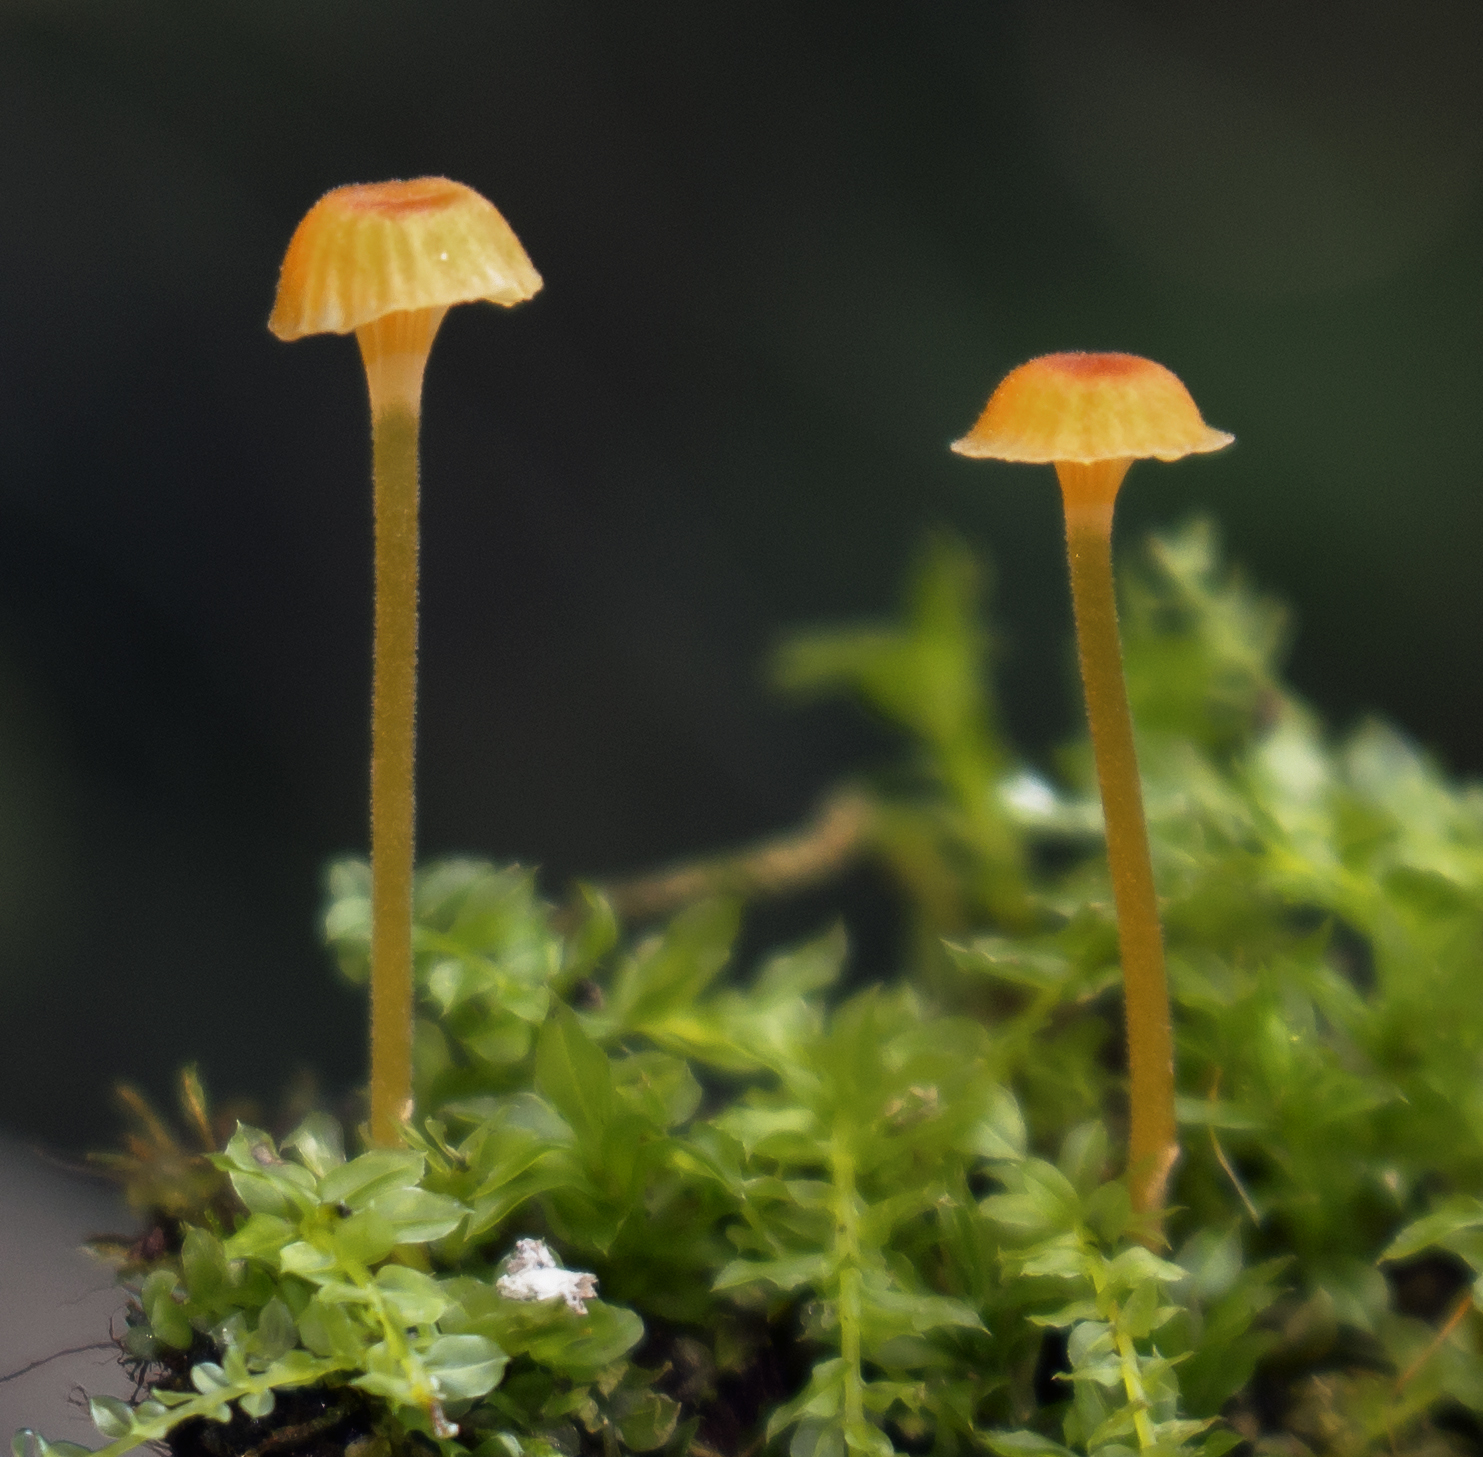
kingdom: Fungi
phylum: Basidiomycota
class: Agaricomycetes
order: Hymenochaetales
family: Rickenellaceae
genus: Rickenella
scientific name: Rickenella fibula
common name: Orange mosscap
